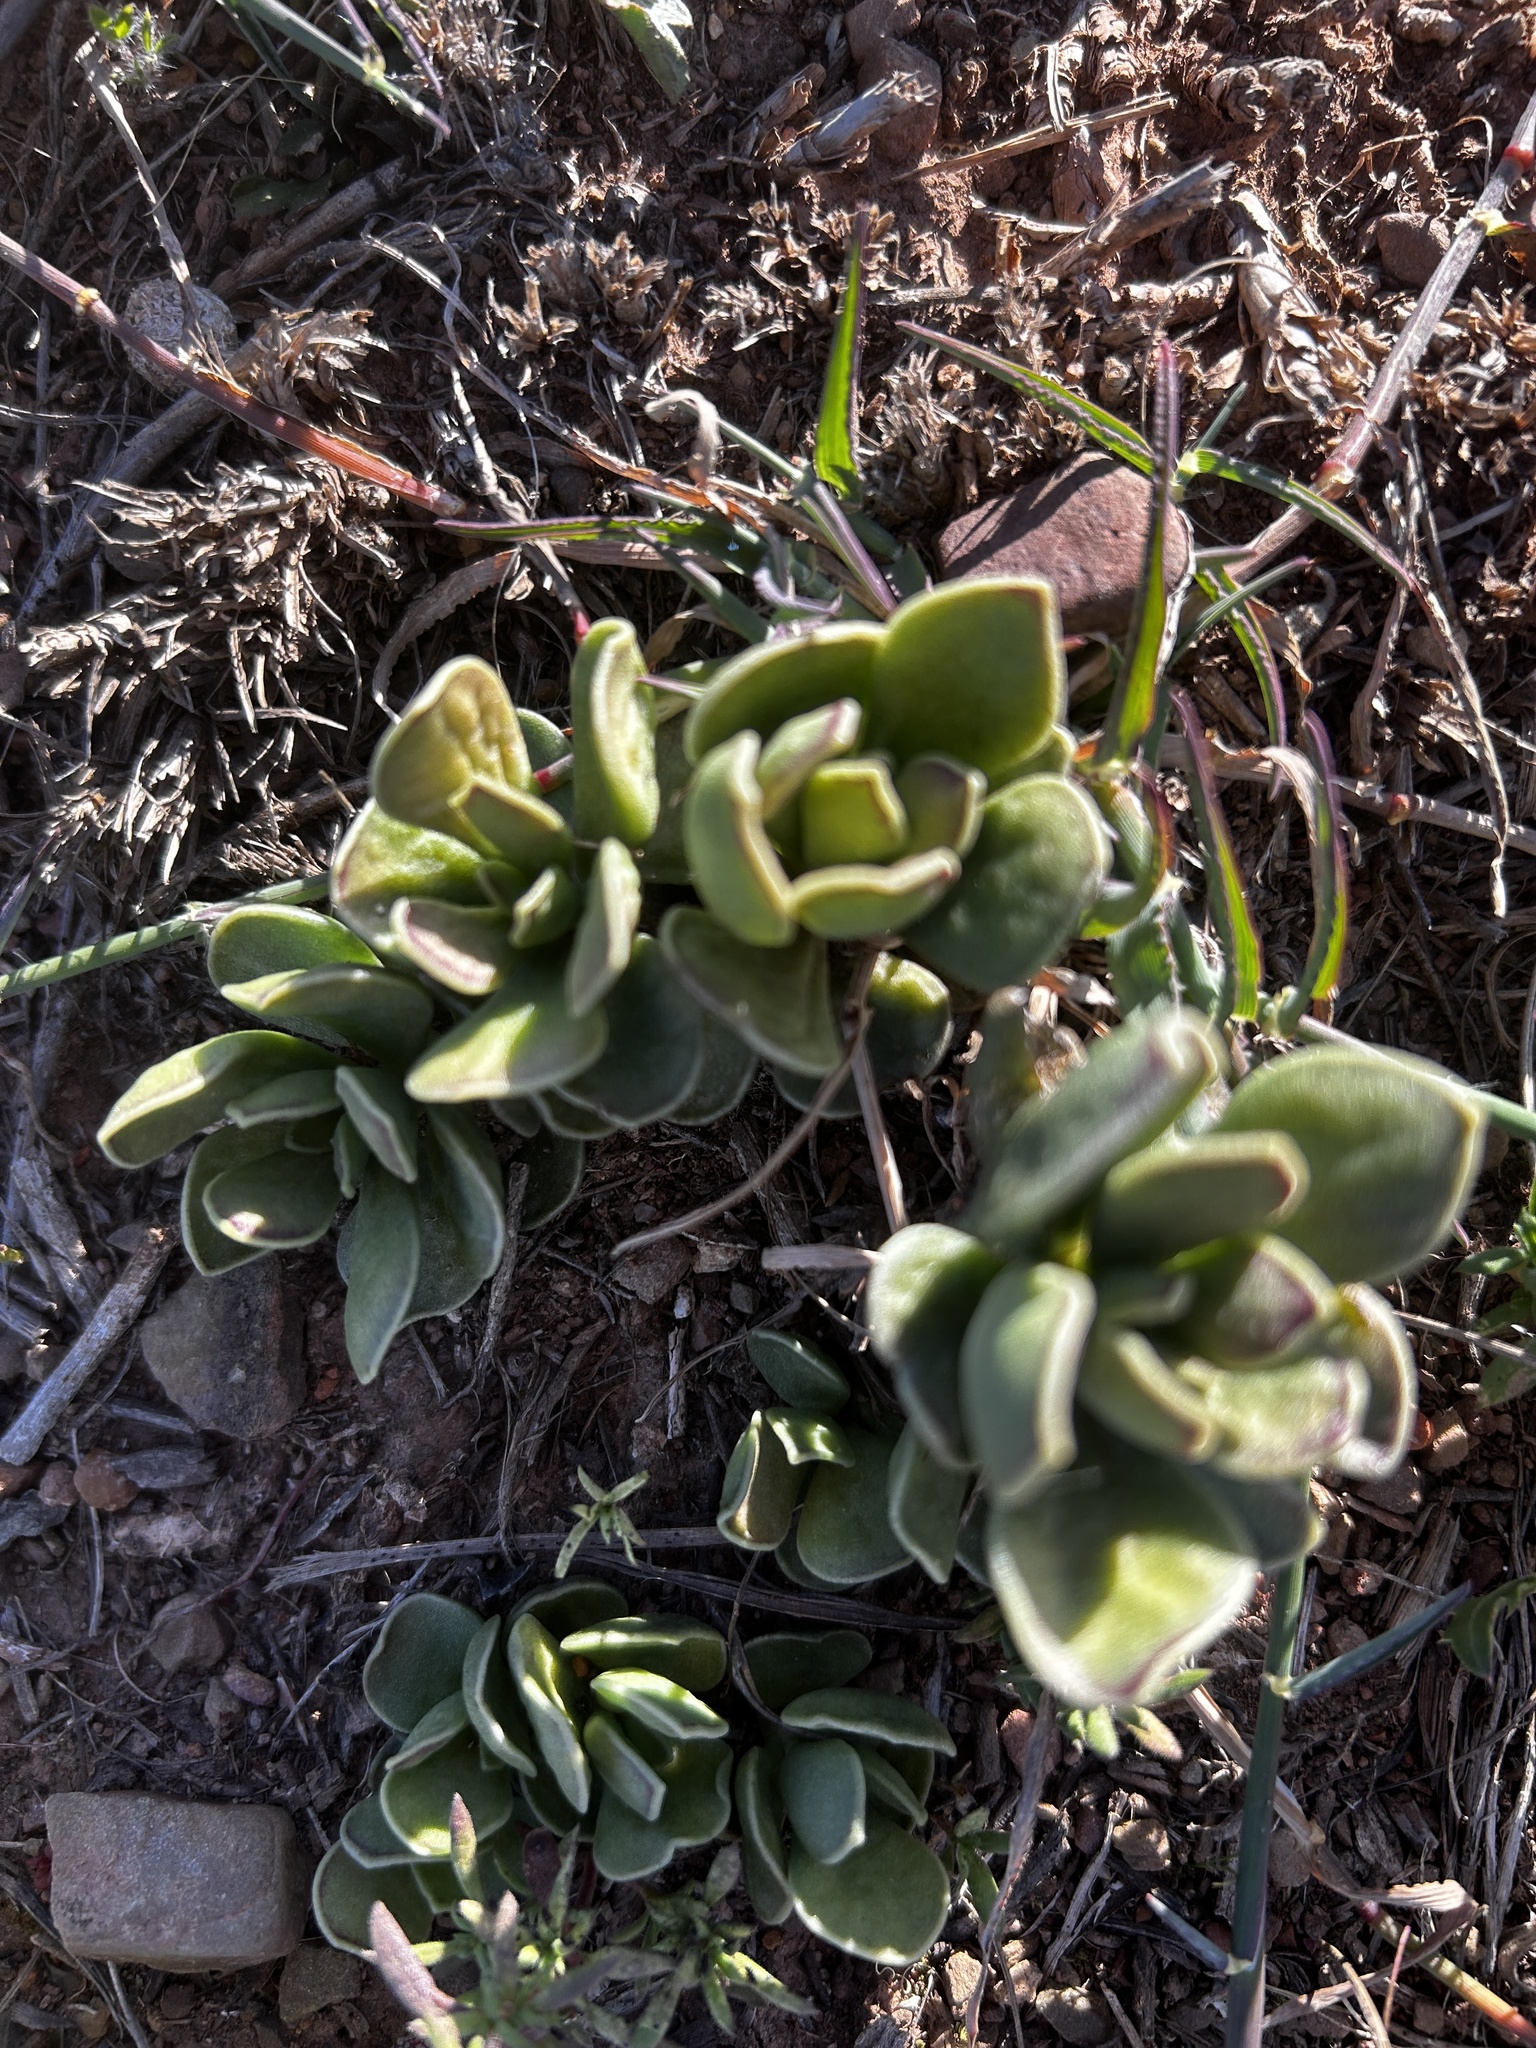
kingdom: Plantae
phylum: Tracheophyta
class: Magnoliopsida
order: Saxifragales
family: Crassulaceae
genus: Adromischus
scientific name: Adromischus caryophyllaceus
